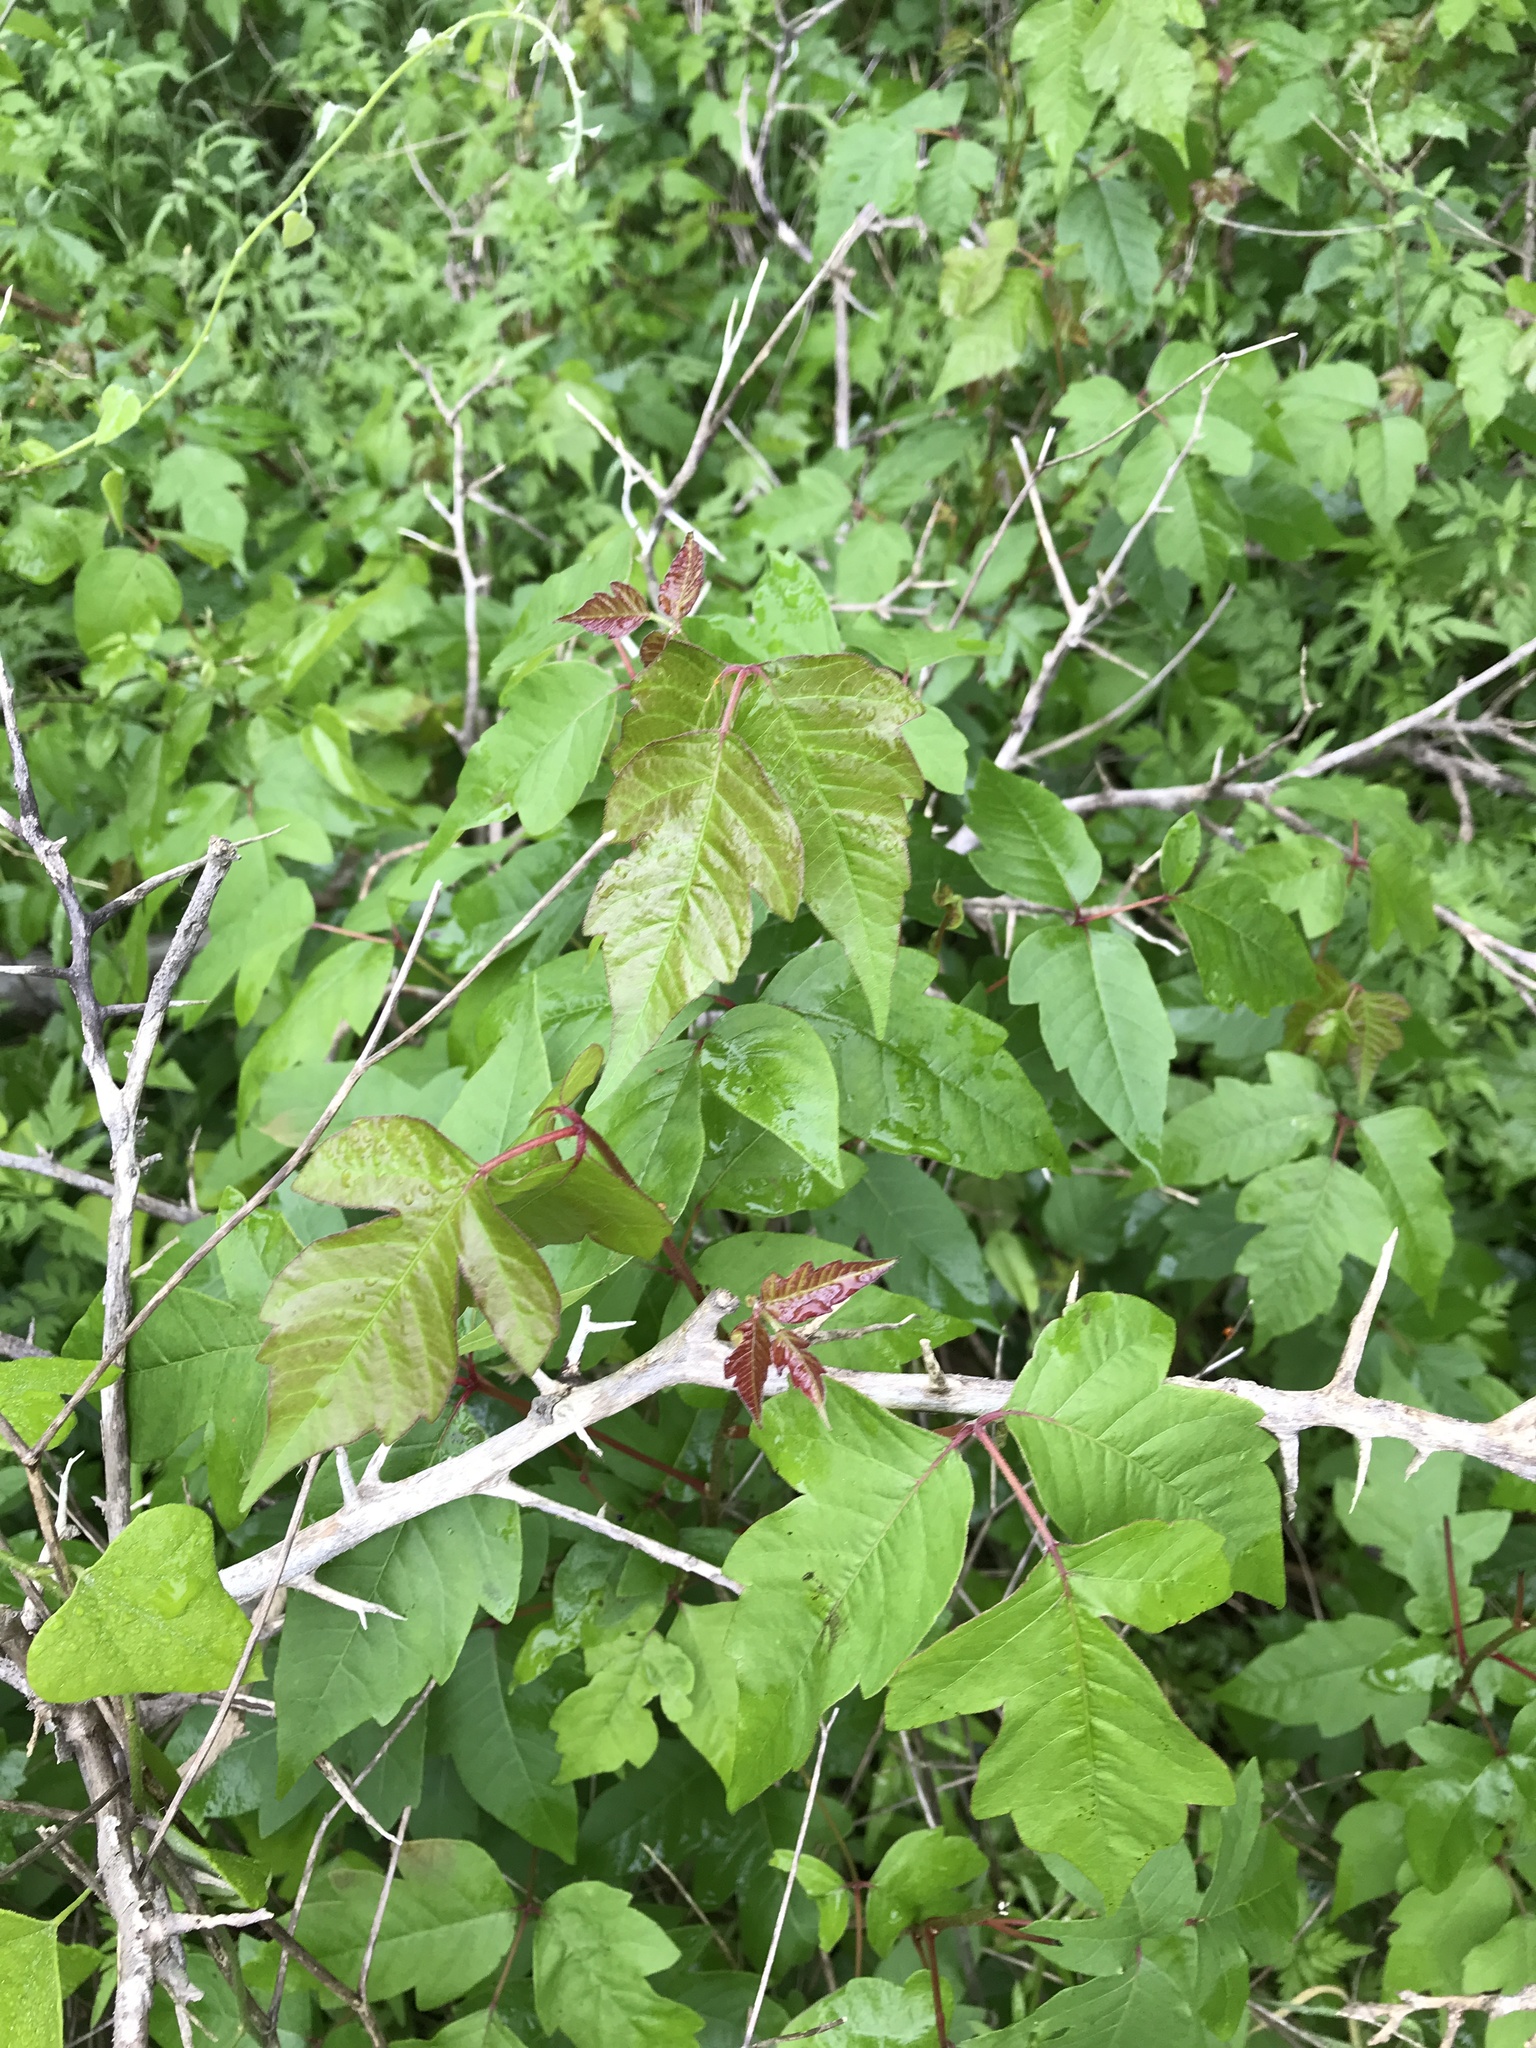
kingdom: Plantae
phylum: Tracheophyta
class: Magnoliopsida
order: Sapindales
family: Anacardiaceae
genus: Toxicodendron
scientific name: Toxicodendron radicans
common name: Poison ivy
